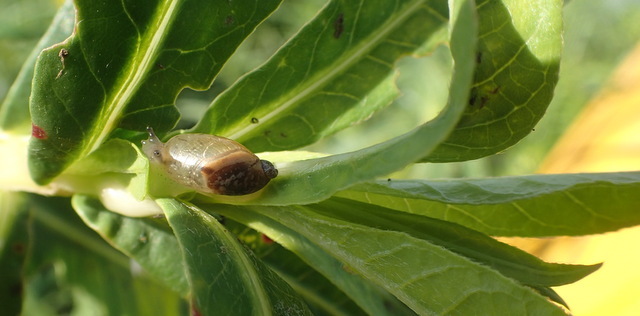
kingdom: Plantae
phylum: Tracheophyta
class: Magnoliopsida
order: Caryophyllales
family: Amaranthaceae
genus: Alternanthera
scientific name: Alternanthera philoxeroides
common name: Alligatorweed
